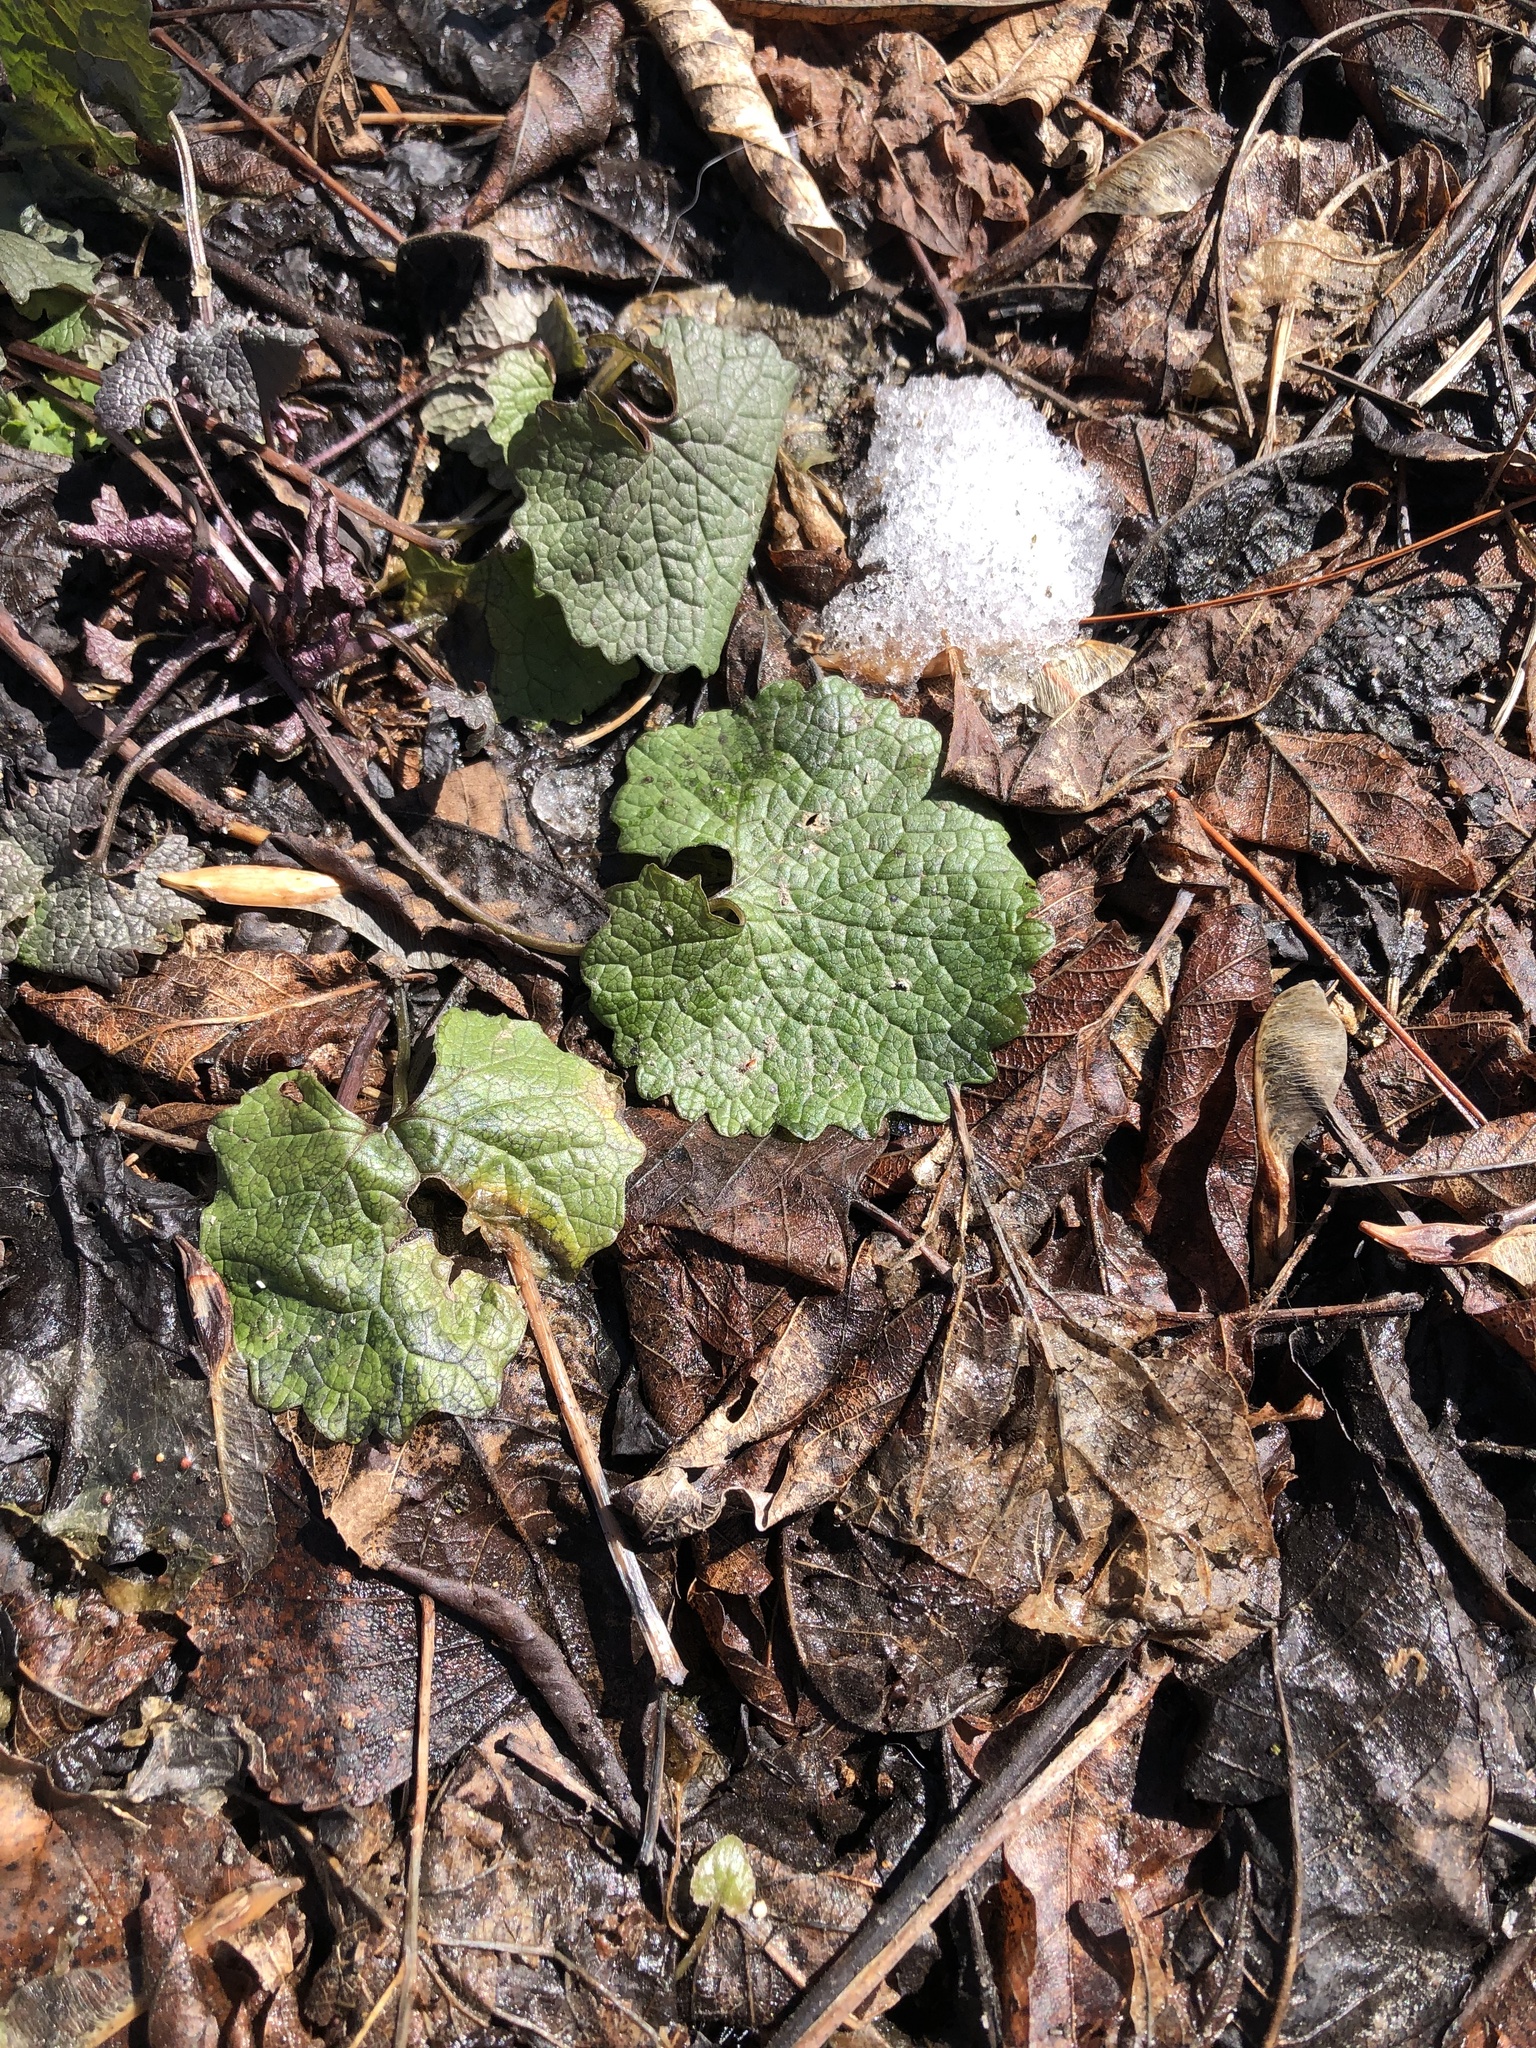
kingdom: Plantae
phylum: Tracheophyta
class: Magnoliopsida
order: Brassicales
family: Brassicaceae
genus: Alliaria
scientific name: Alliaria petiolata
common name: Garlic mustard
